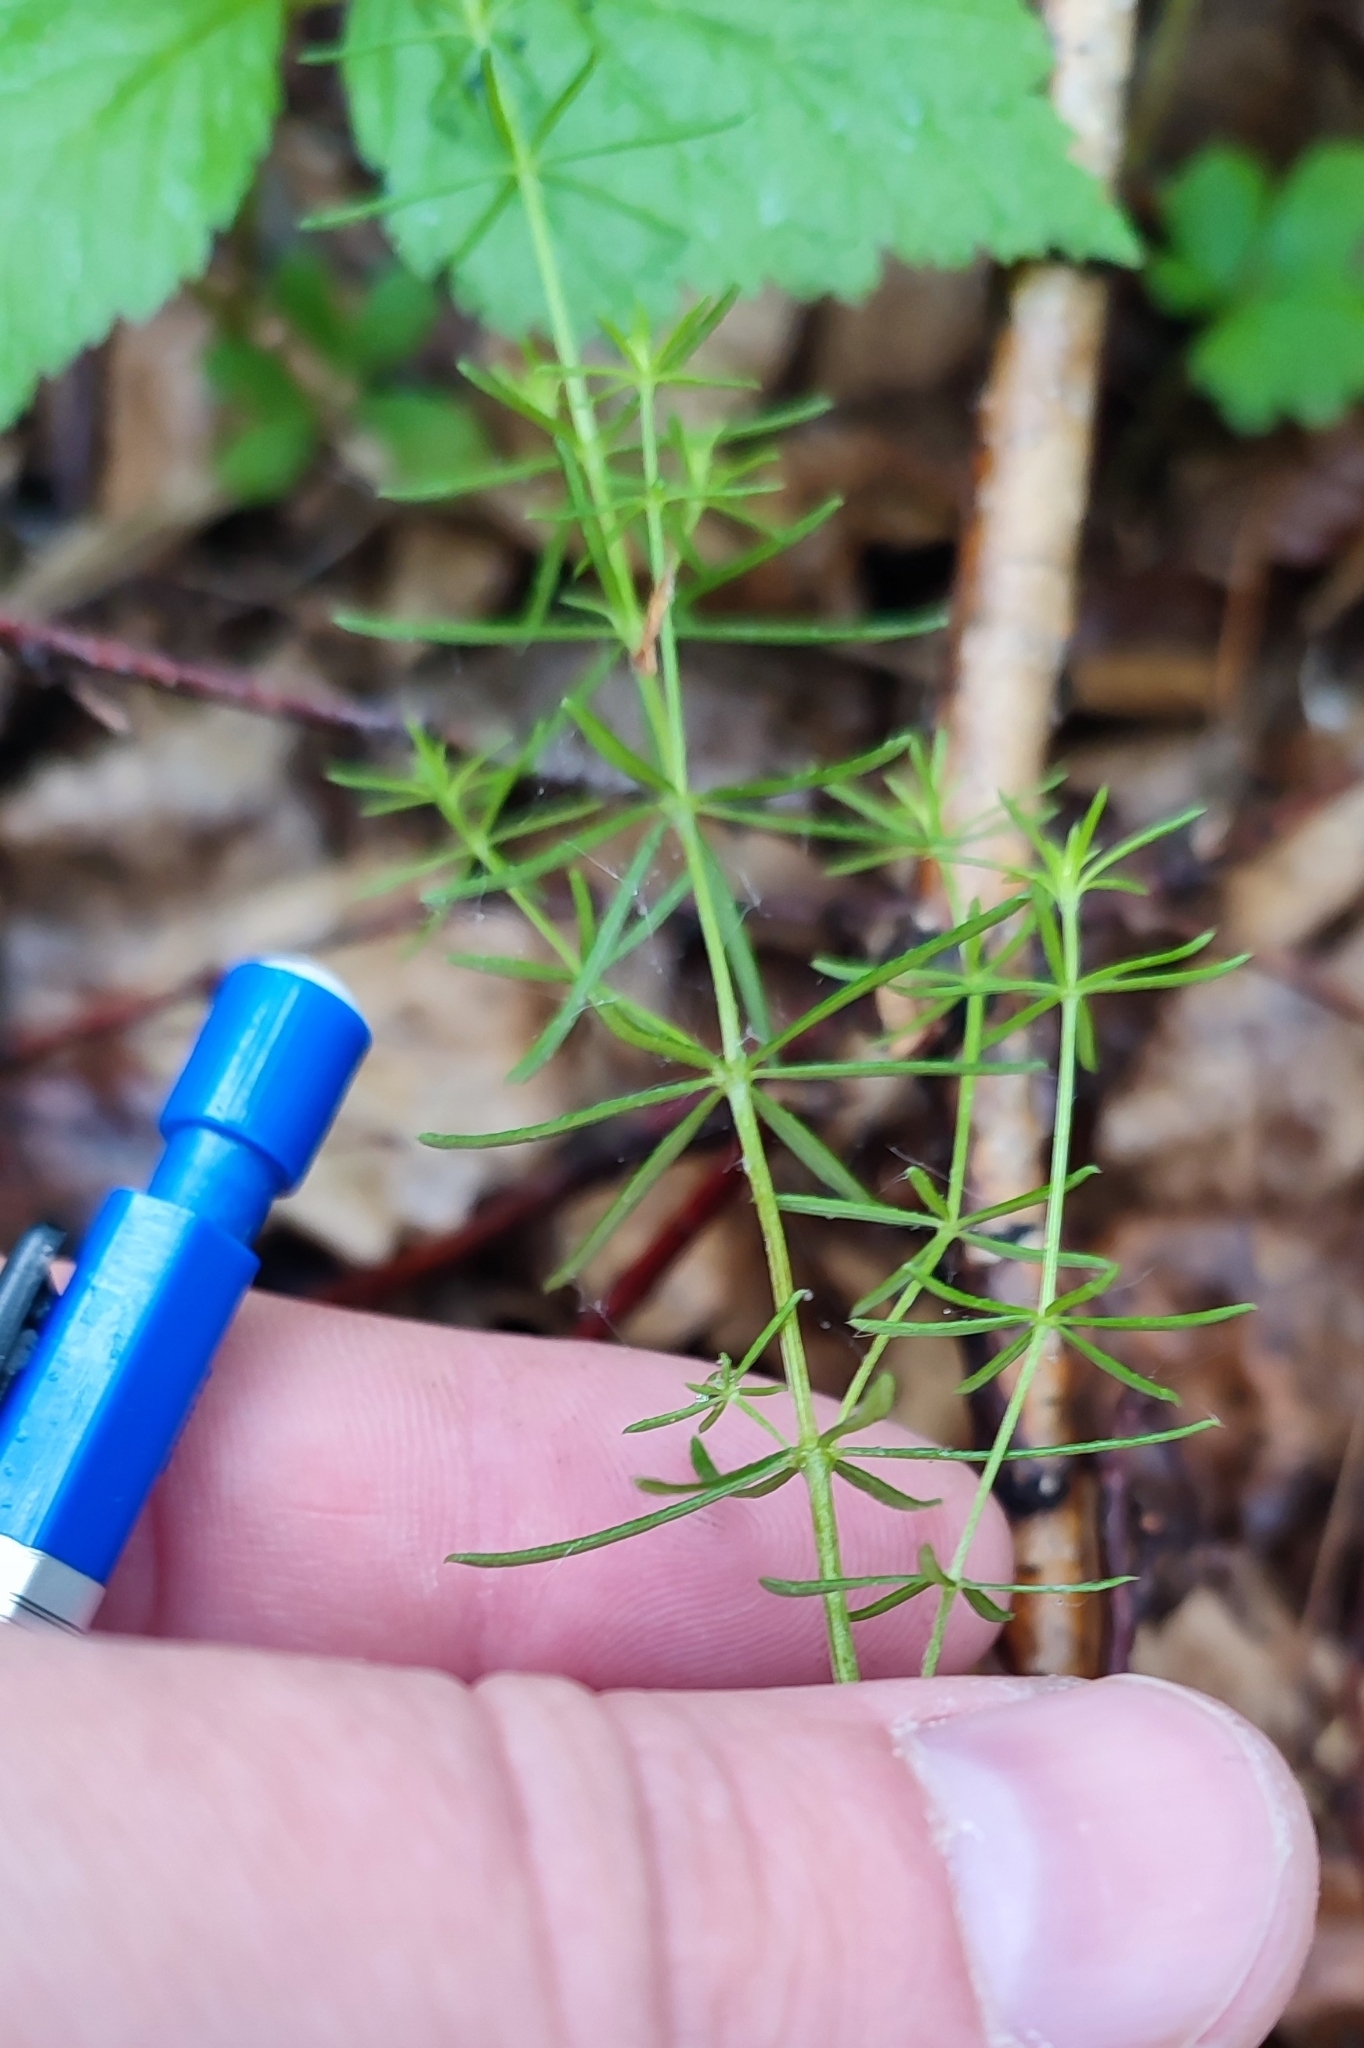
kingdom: Plantae
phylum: Tracheophyta
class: Magnoliopsida
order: Gentianales
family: Rubiaceae
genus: Galium
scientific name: Galium verum
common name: Lady's bedstraw
